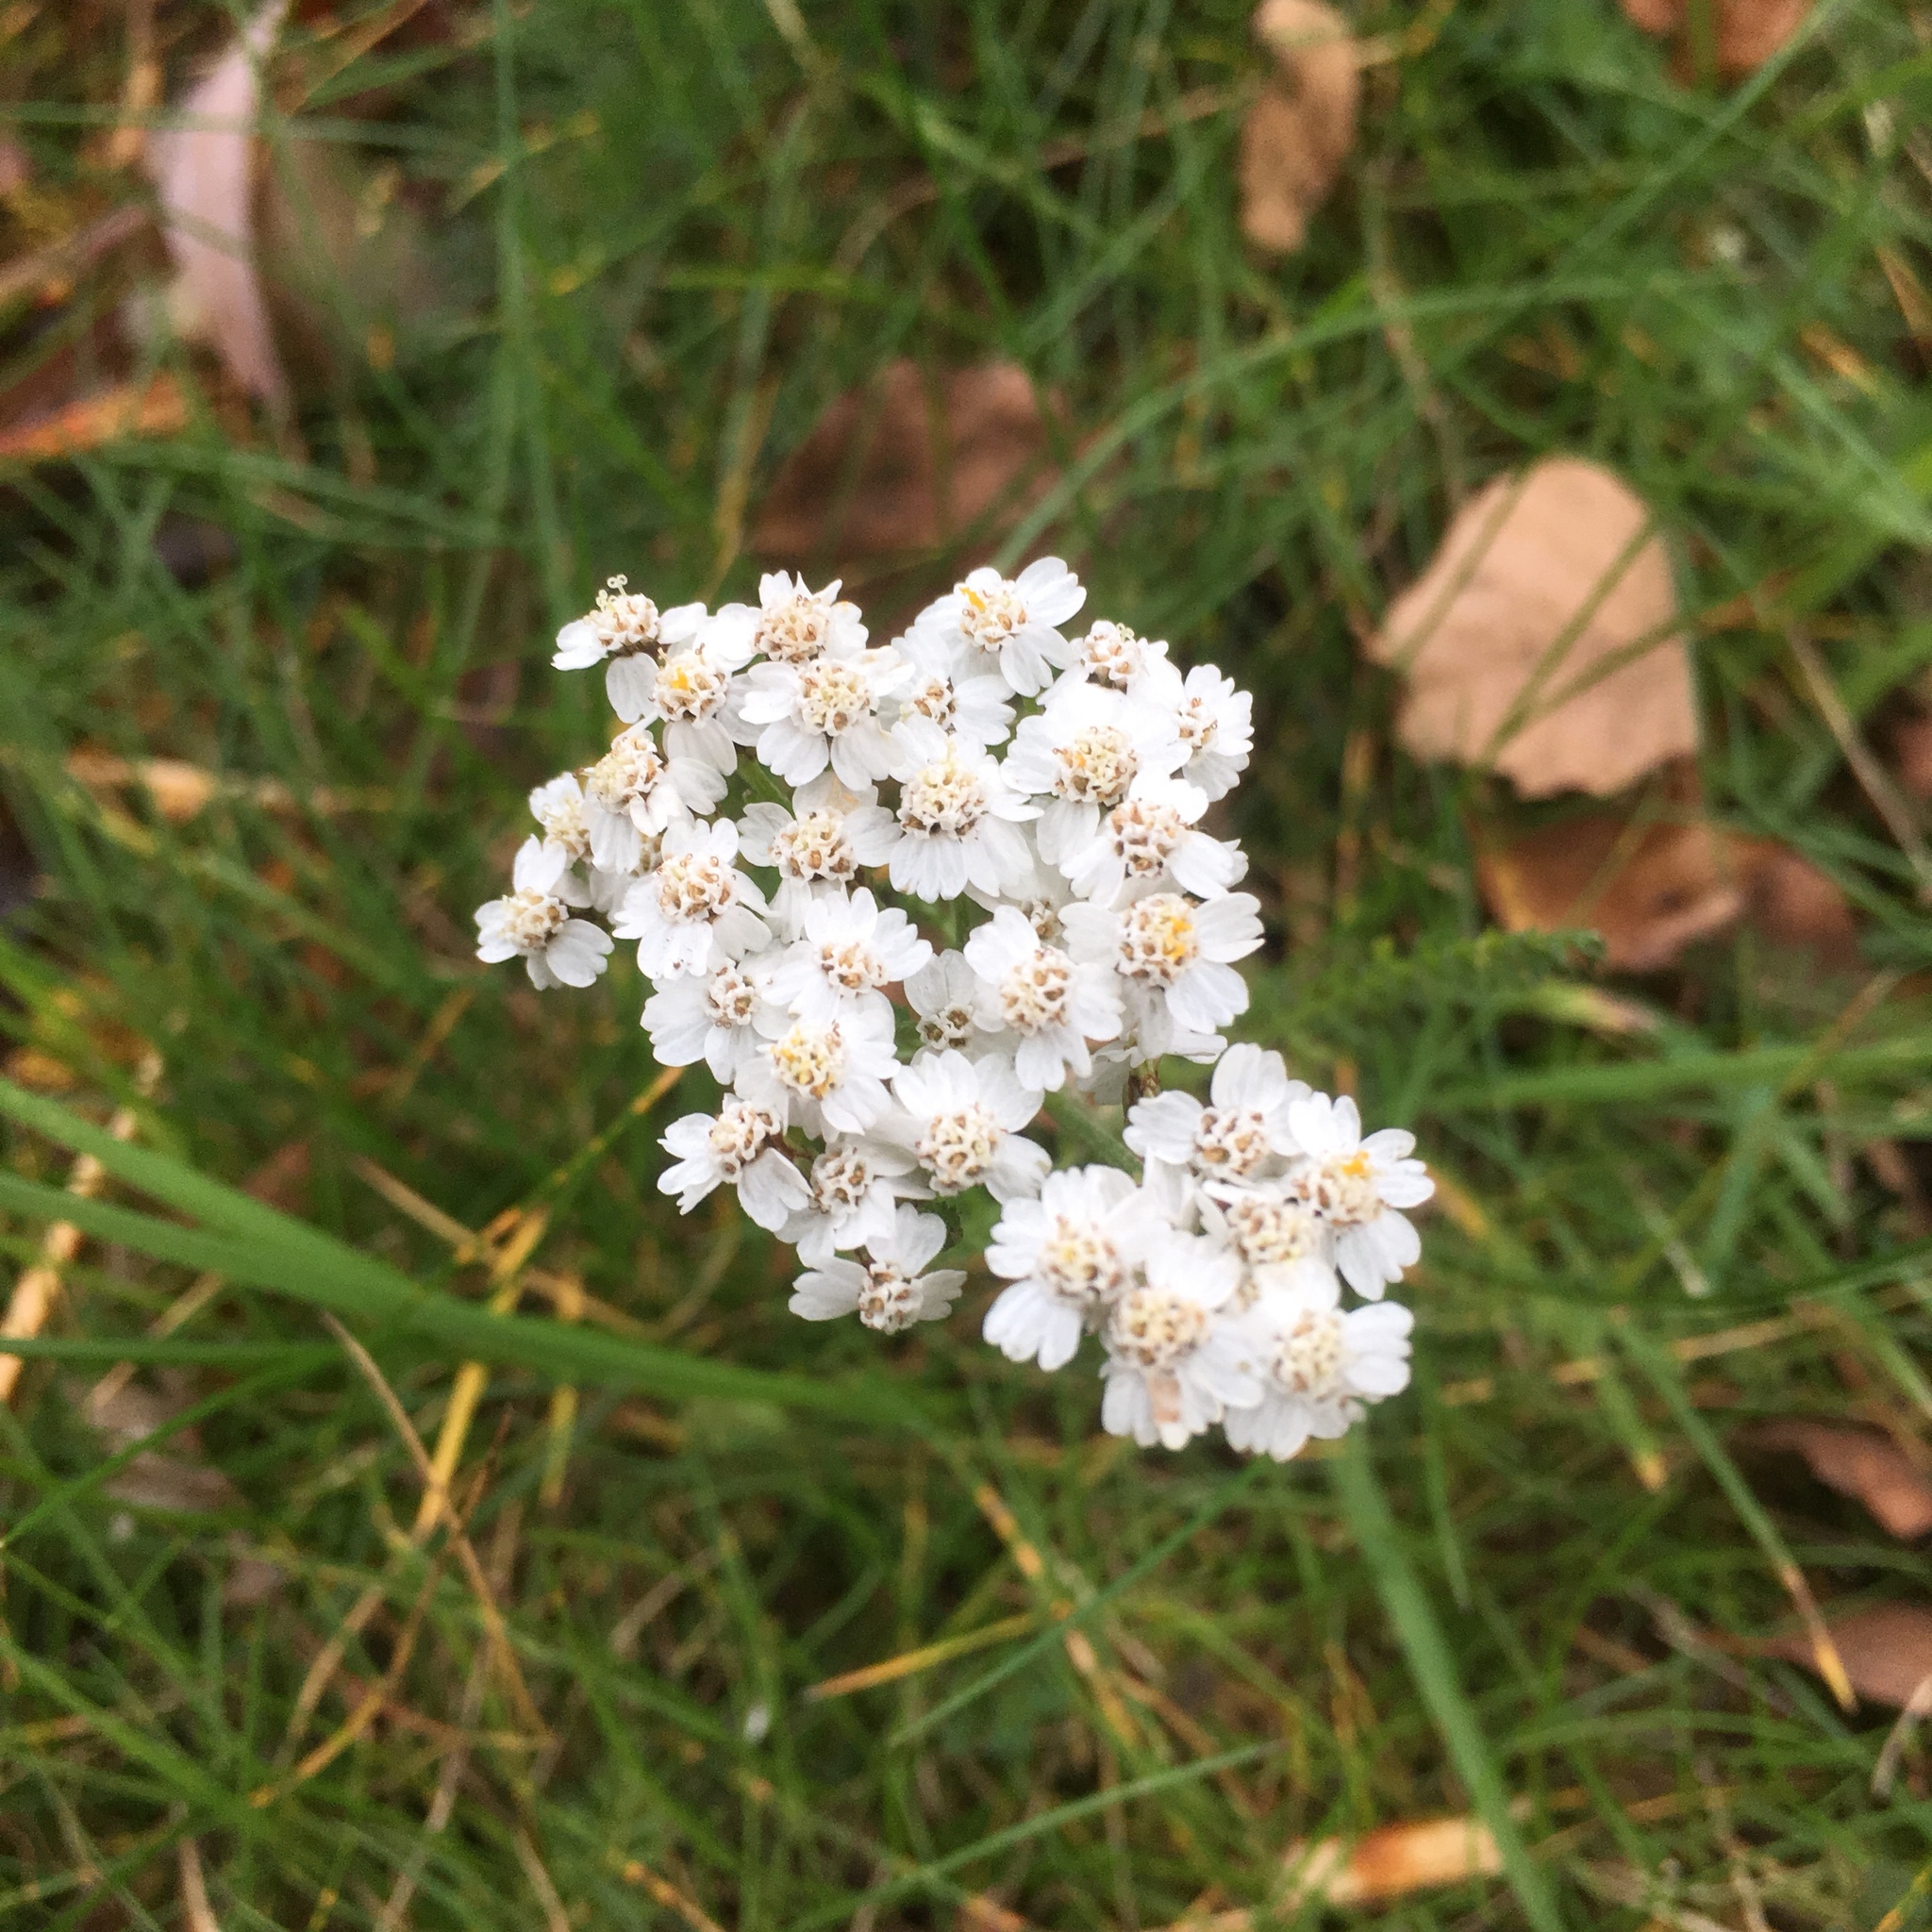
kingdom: Plantae
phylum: Tracheophyta
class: Magnoliopsida
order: Asterales
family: Asteraceae
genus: Achillea
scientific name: Achillea millefolium
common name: Yarrow
